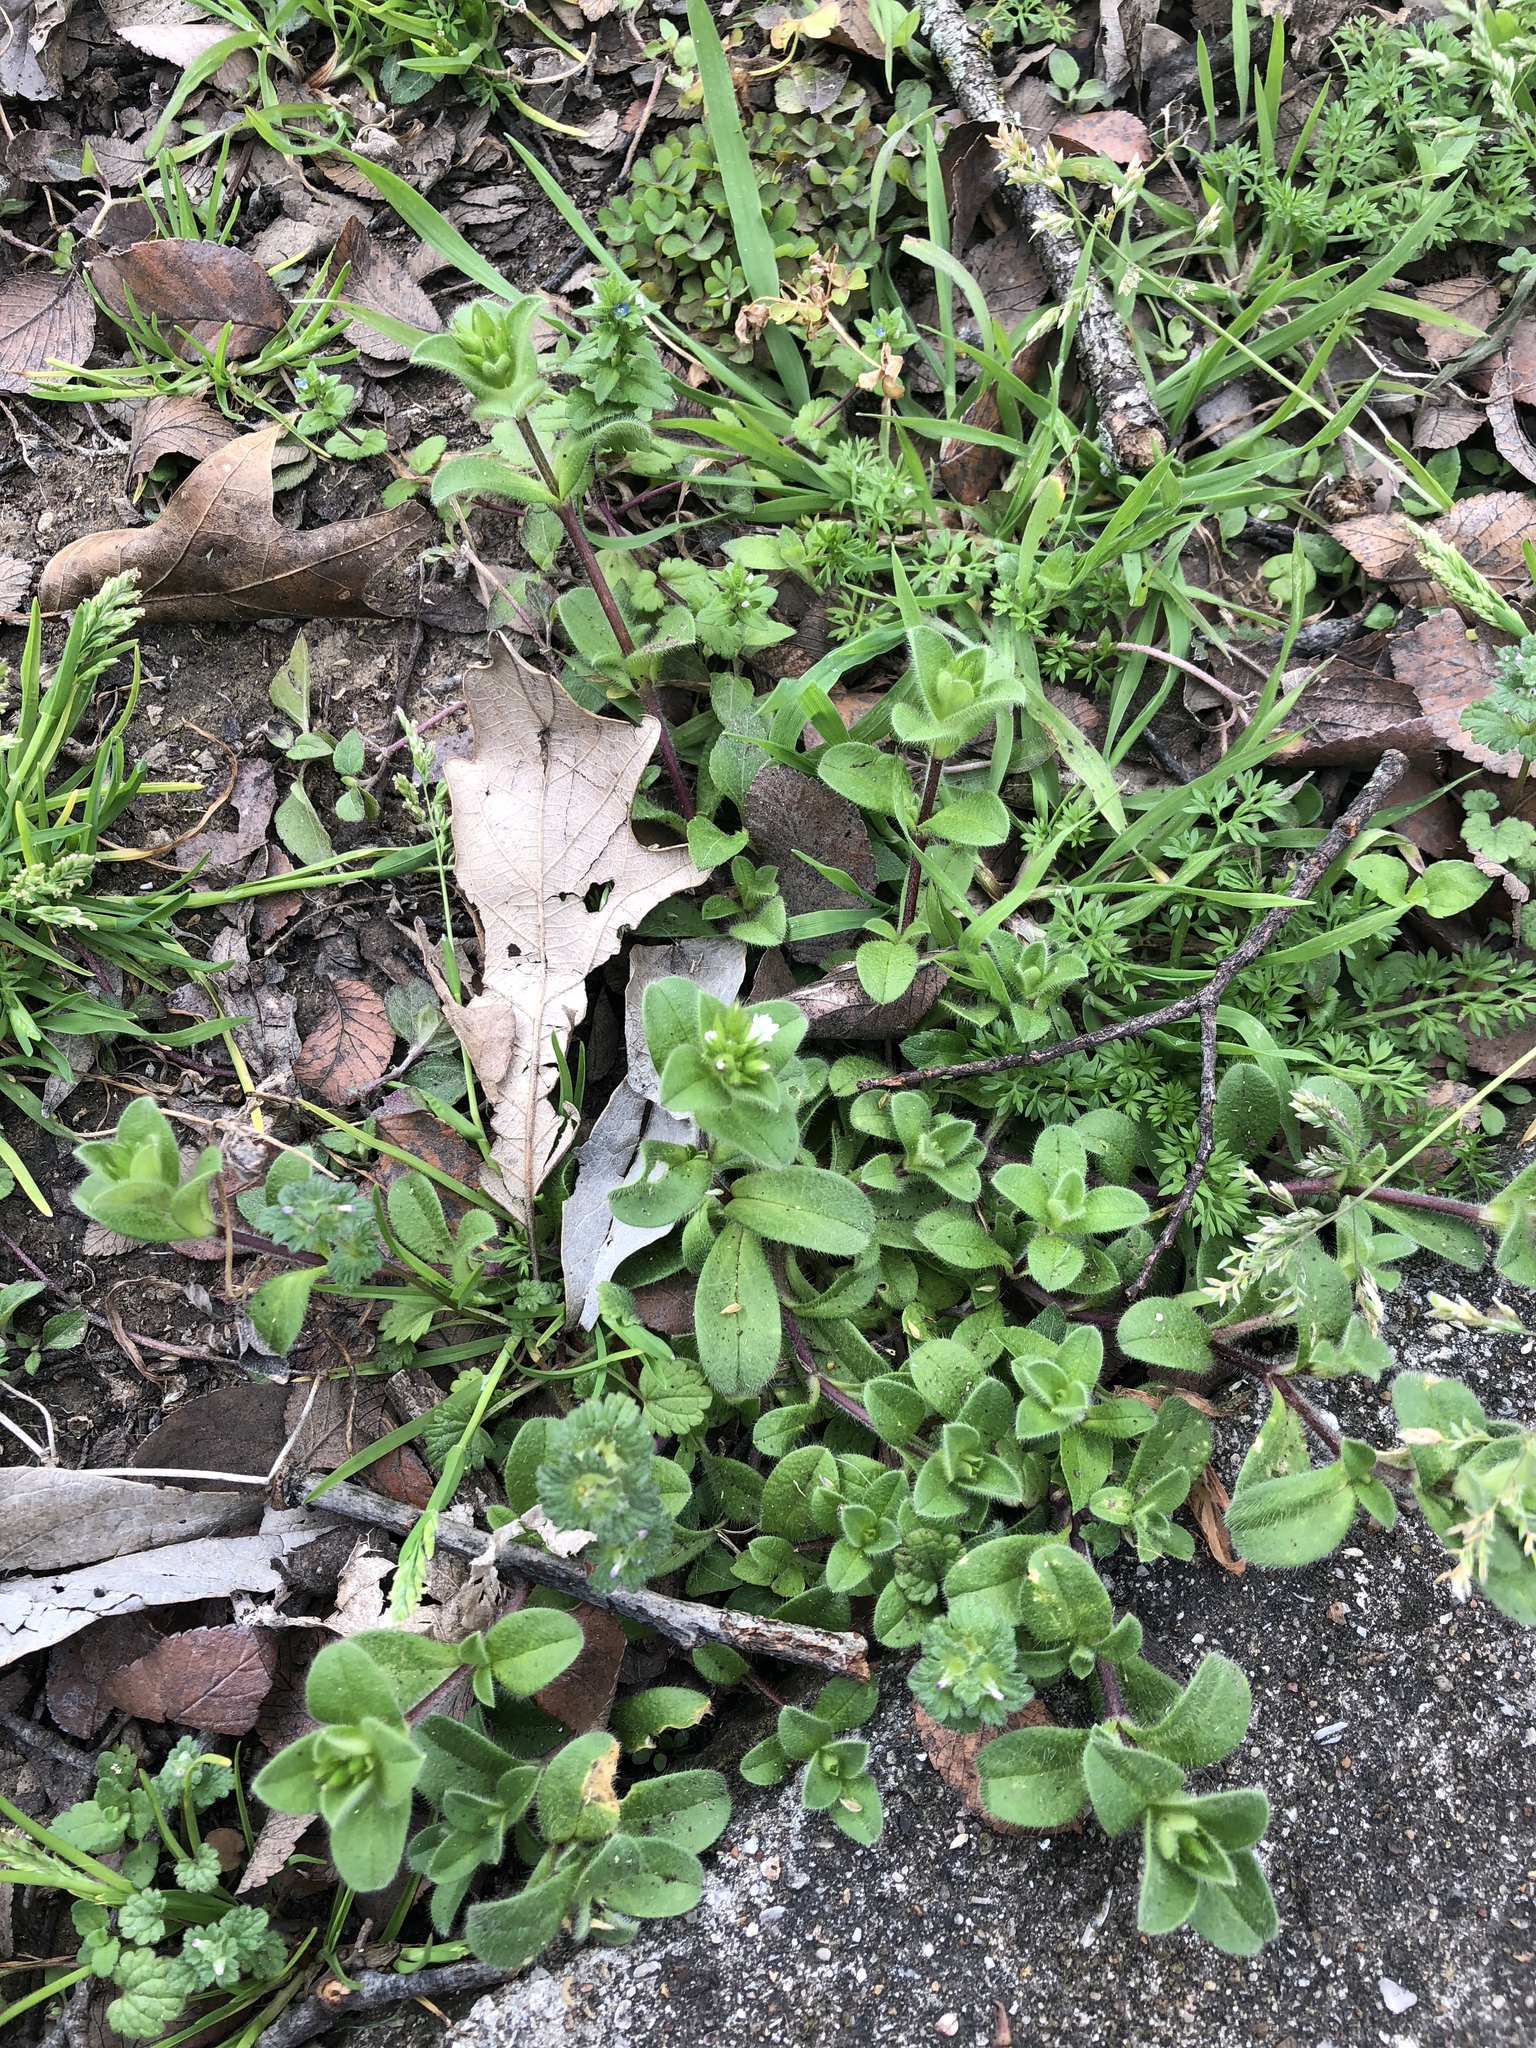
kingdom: Plantae
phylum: Tracheophyta
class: Magnoliopsida
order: Caryophyllales
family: Caryophyllaceae
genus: Cerastium
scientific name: Cerastium glomeratum
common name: Sticky chickweed
